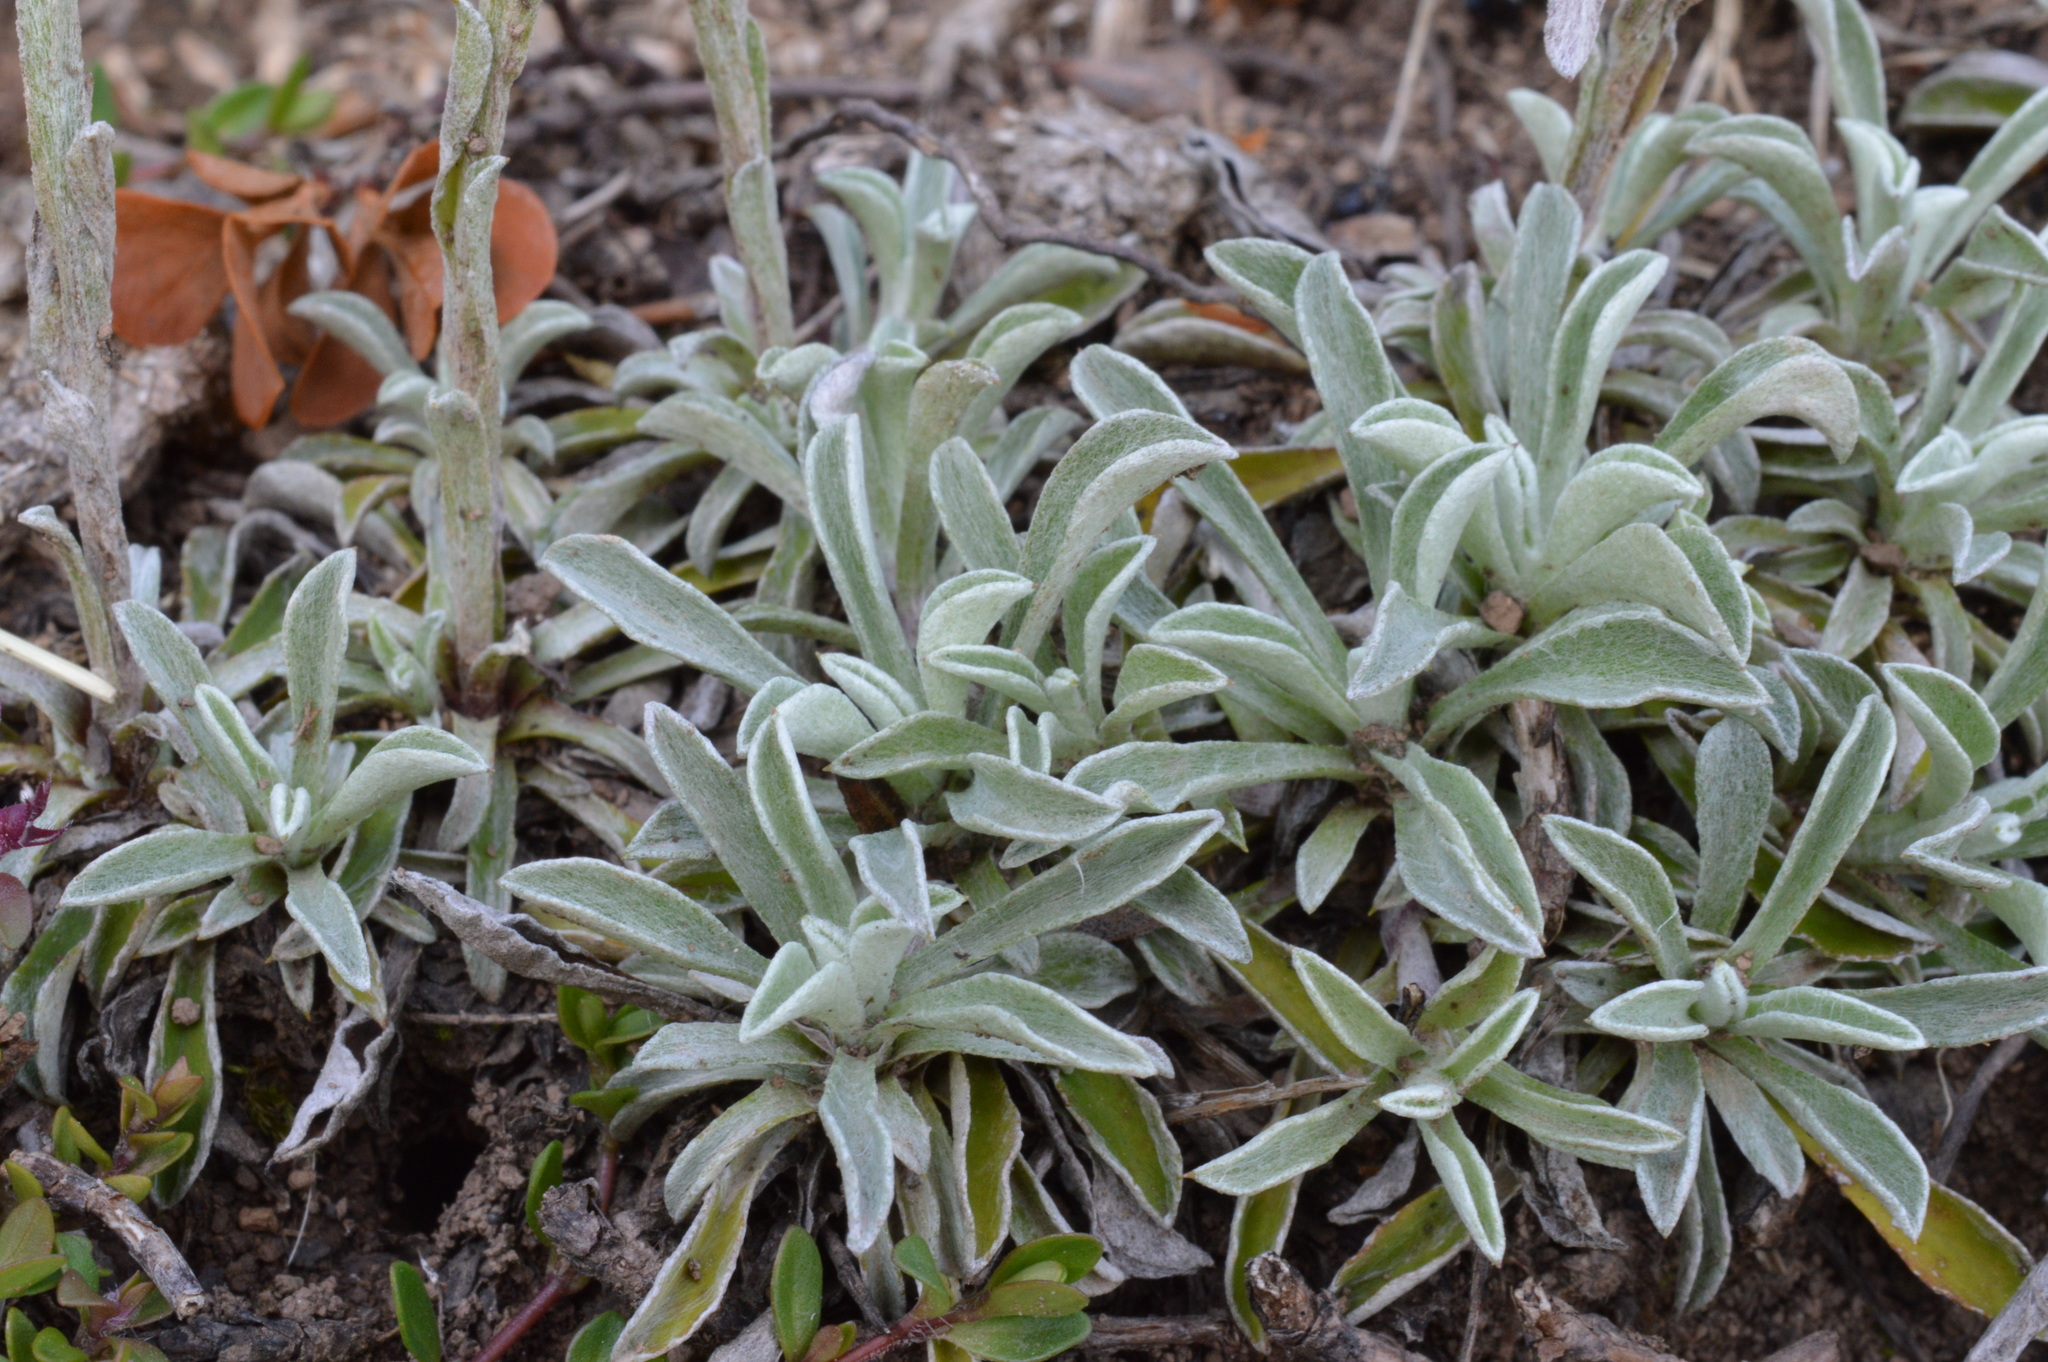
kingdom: Plantae
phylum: Tracheophyta
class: Magnoliopsida
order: Asterales
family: Asteraceae
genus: Antennaria
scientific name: Antennaria dioica
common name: Mountain everlasting
